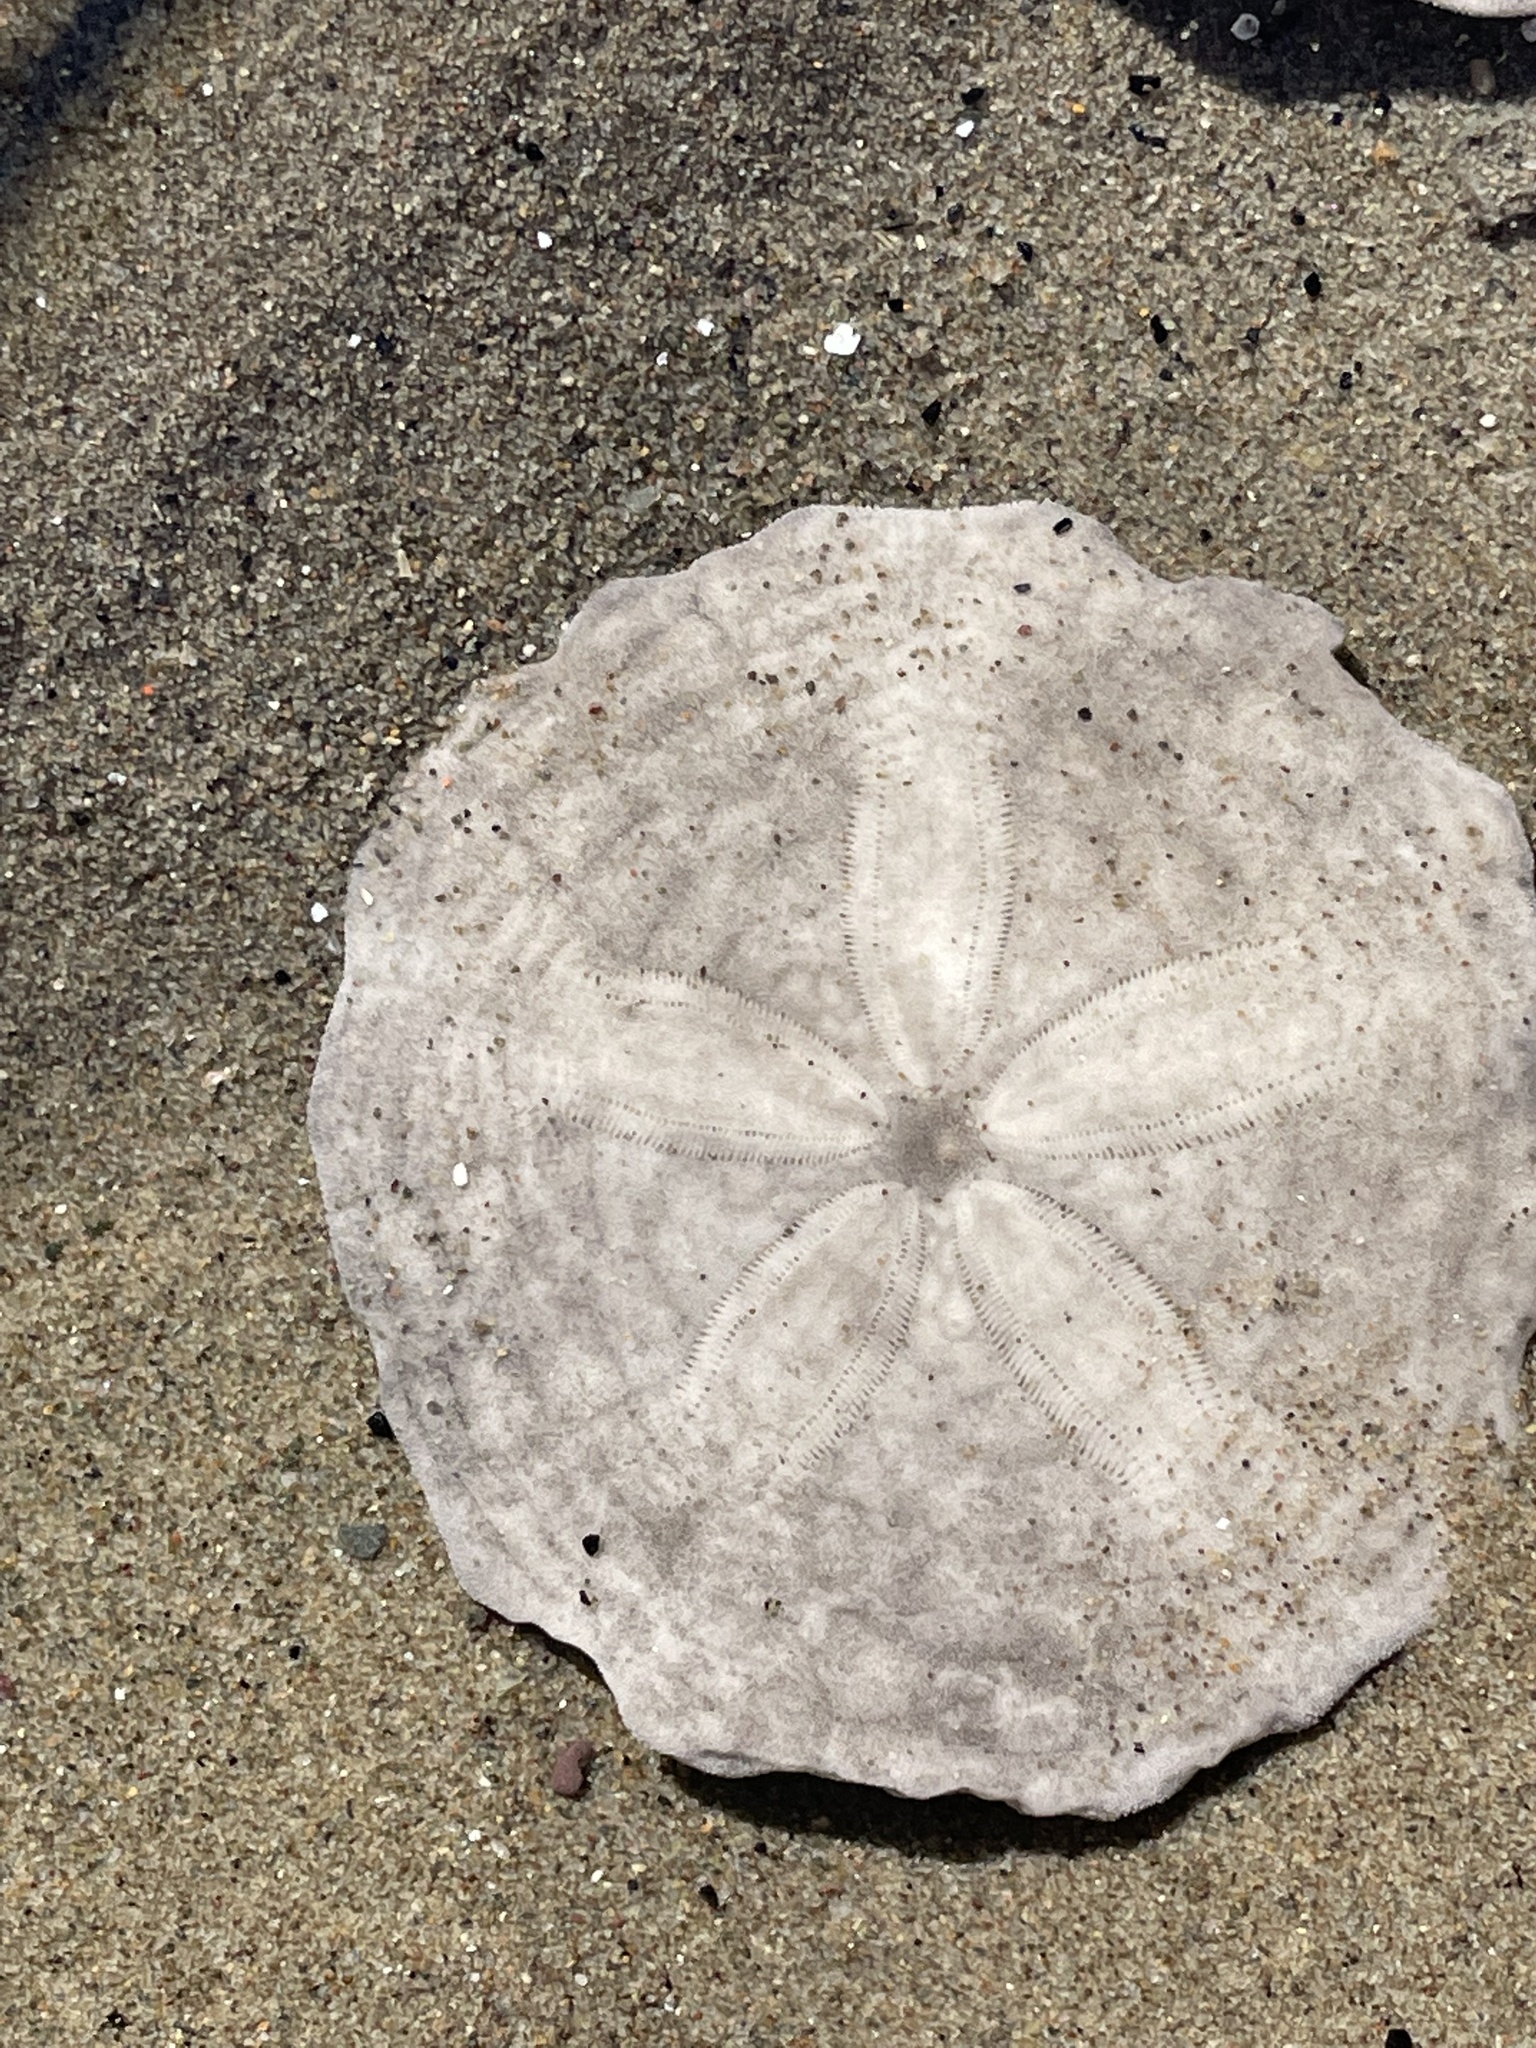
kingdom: Animalia
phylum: Echinodermata
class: Echinoidea
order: Echinolampadacea
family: Echinarachniidae
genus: Echinarachnius
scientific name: Echinarachnius parma
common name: Common sand dollar
